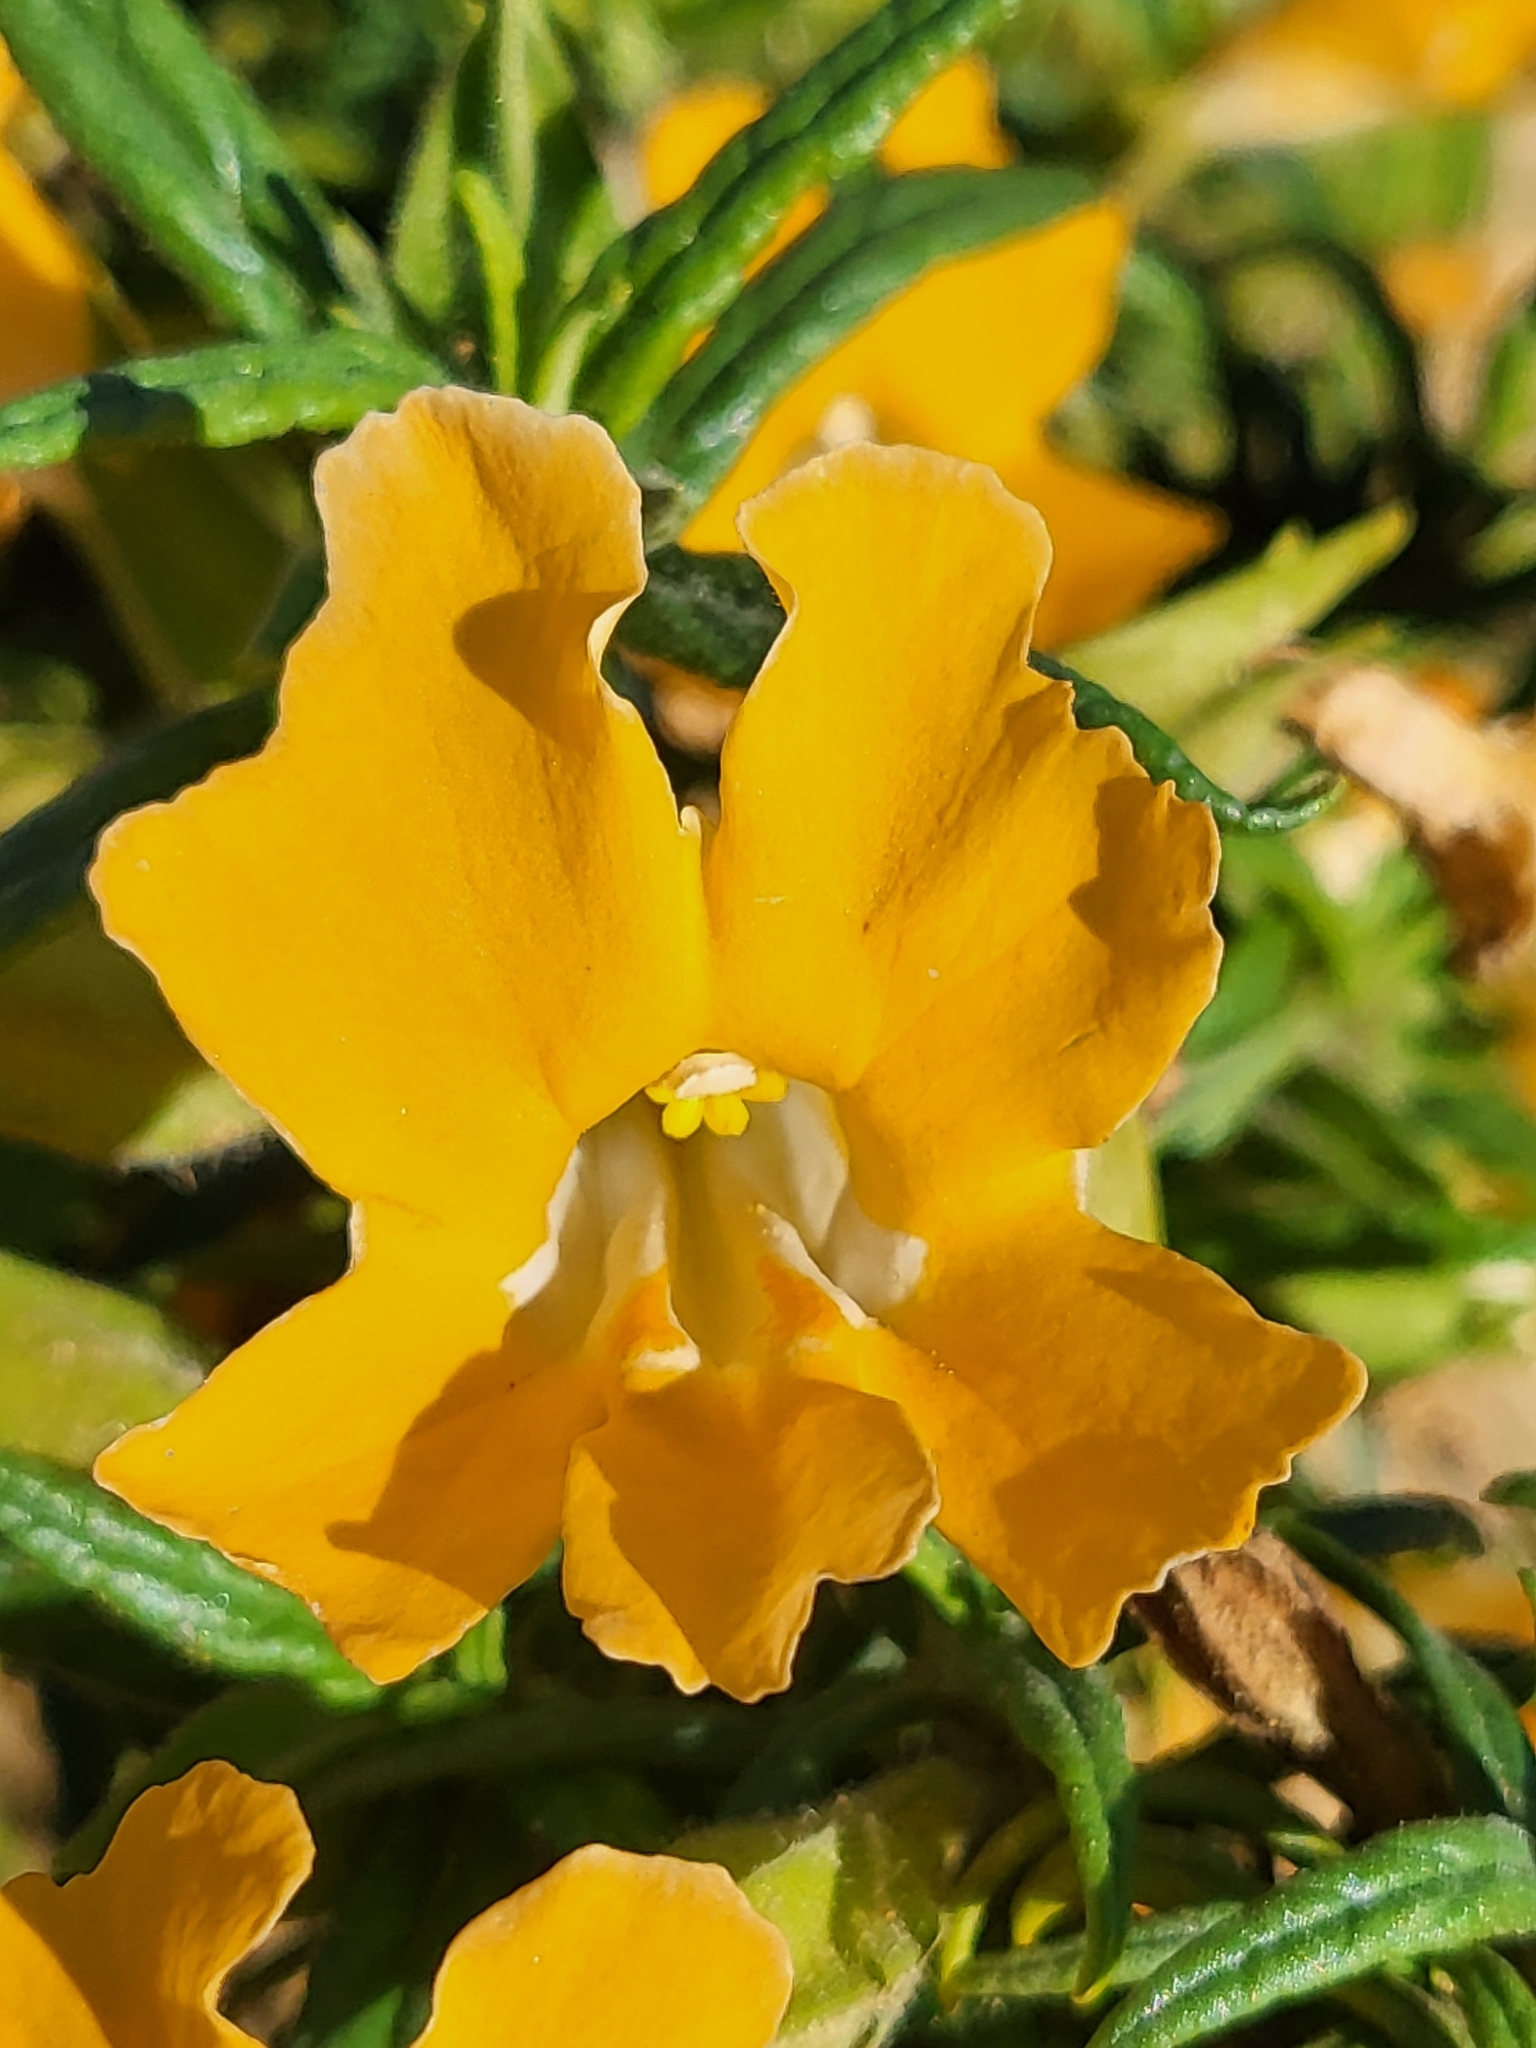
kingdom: Plantae
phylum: Tracheophyta
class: Magnoliopsida
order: Lamiales
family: Phrymaceae
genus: Diplacus
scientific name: Diplacus longiflorus
